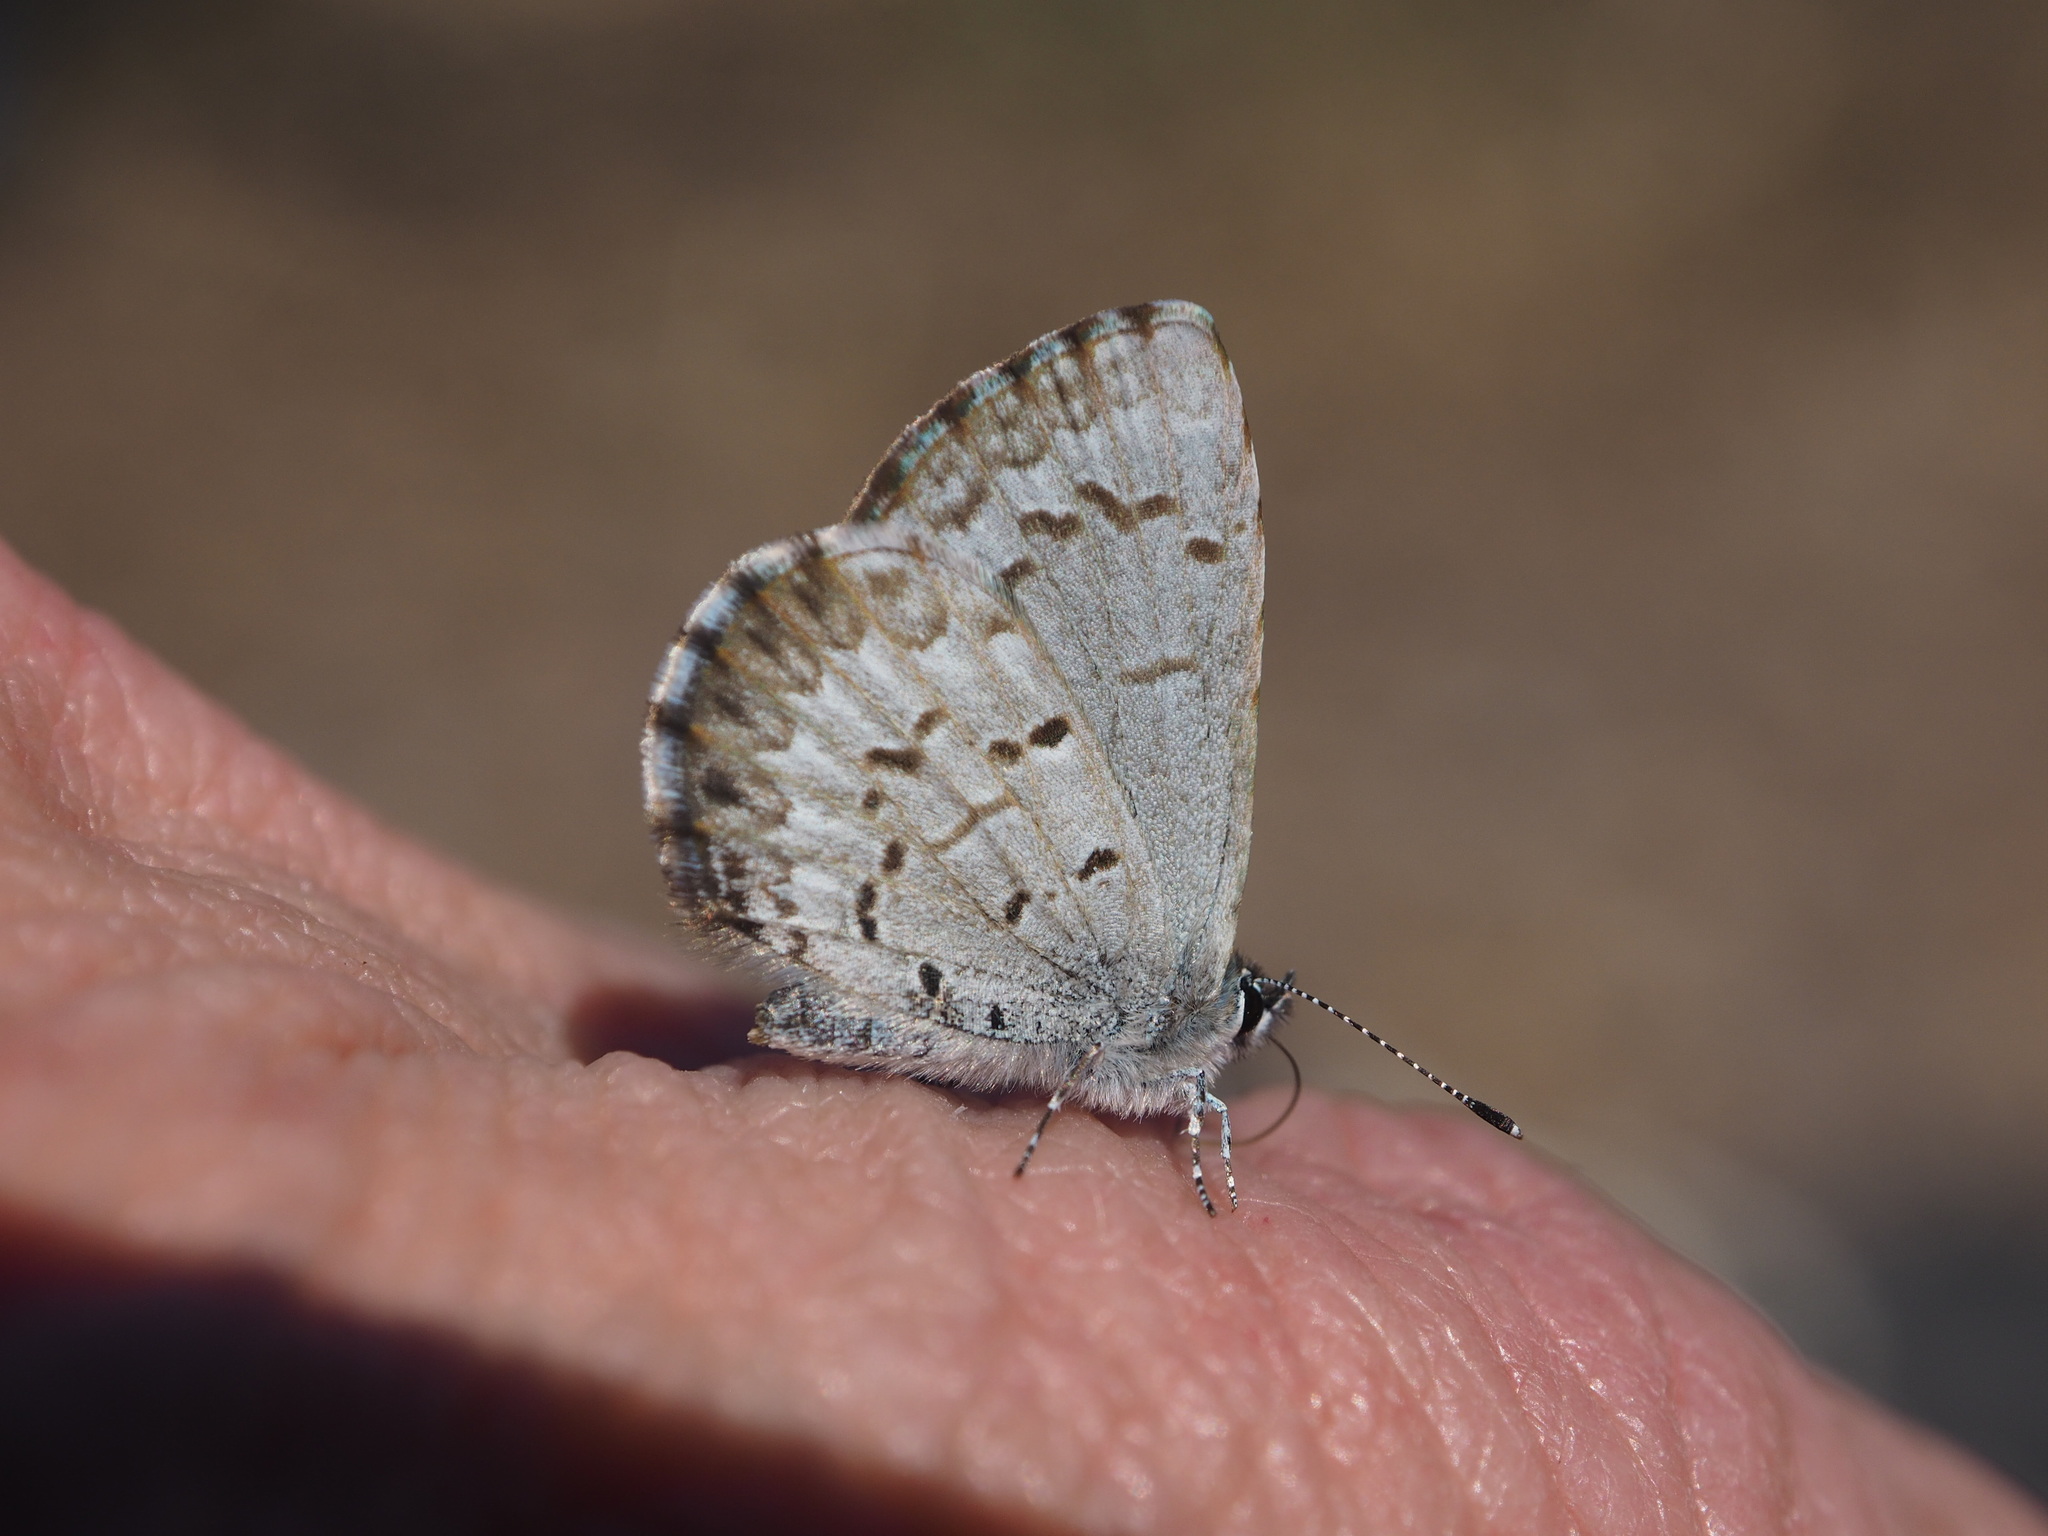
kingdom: Animalia
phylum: Arthropoda
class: Insecta
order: Lepidoptera
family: Lycaenidae
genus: Celastrina
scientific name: Celastrina lucia
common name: Lucia azure
